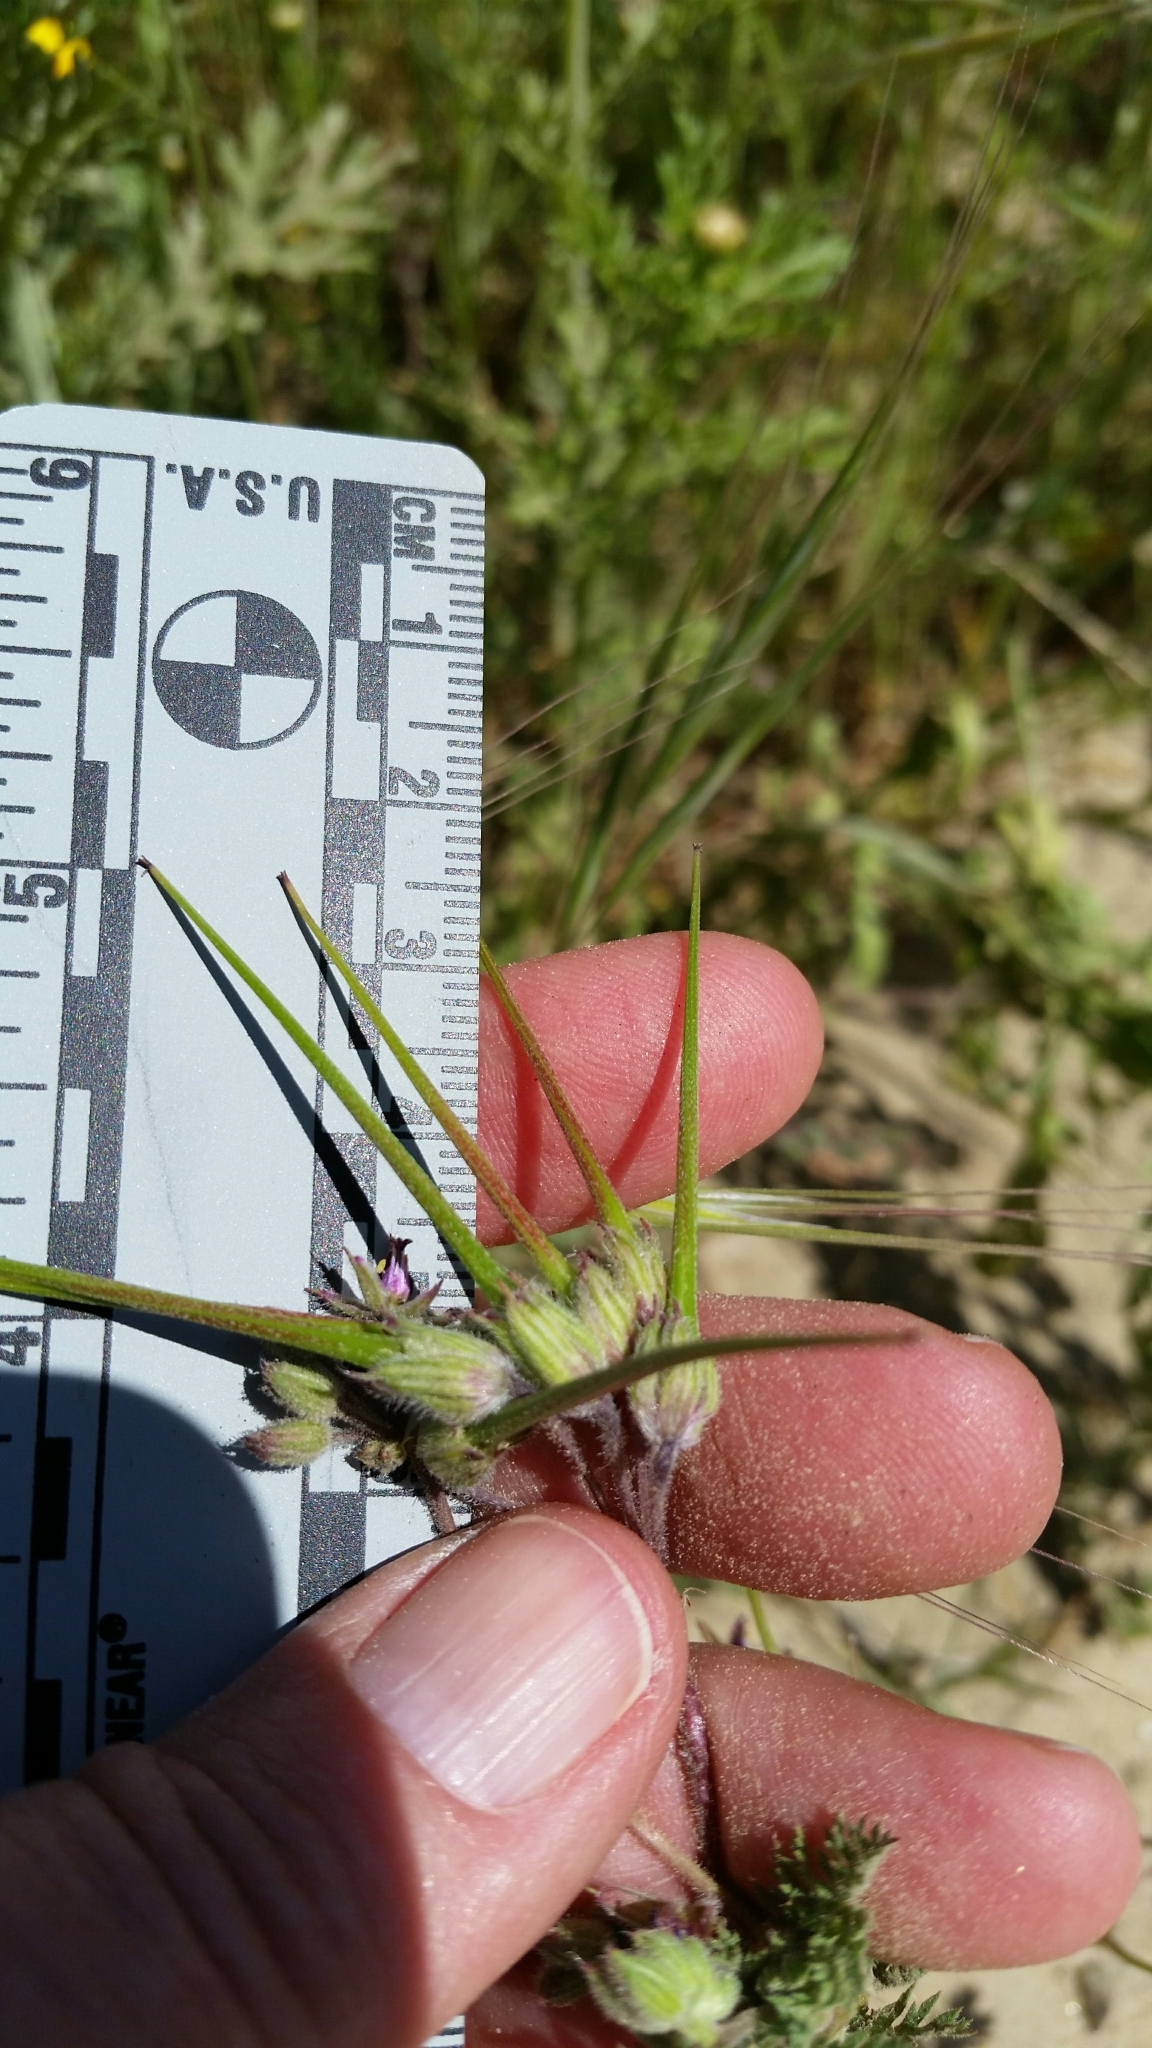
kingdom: Plantae
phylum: Tracheophyta
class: Magnoliopsida
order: Geraniales
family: Geraniaceae
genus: Erodium
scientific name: Erodium cicutarium
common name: Common stork's-bill
